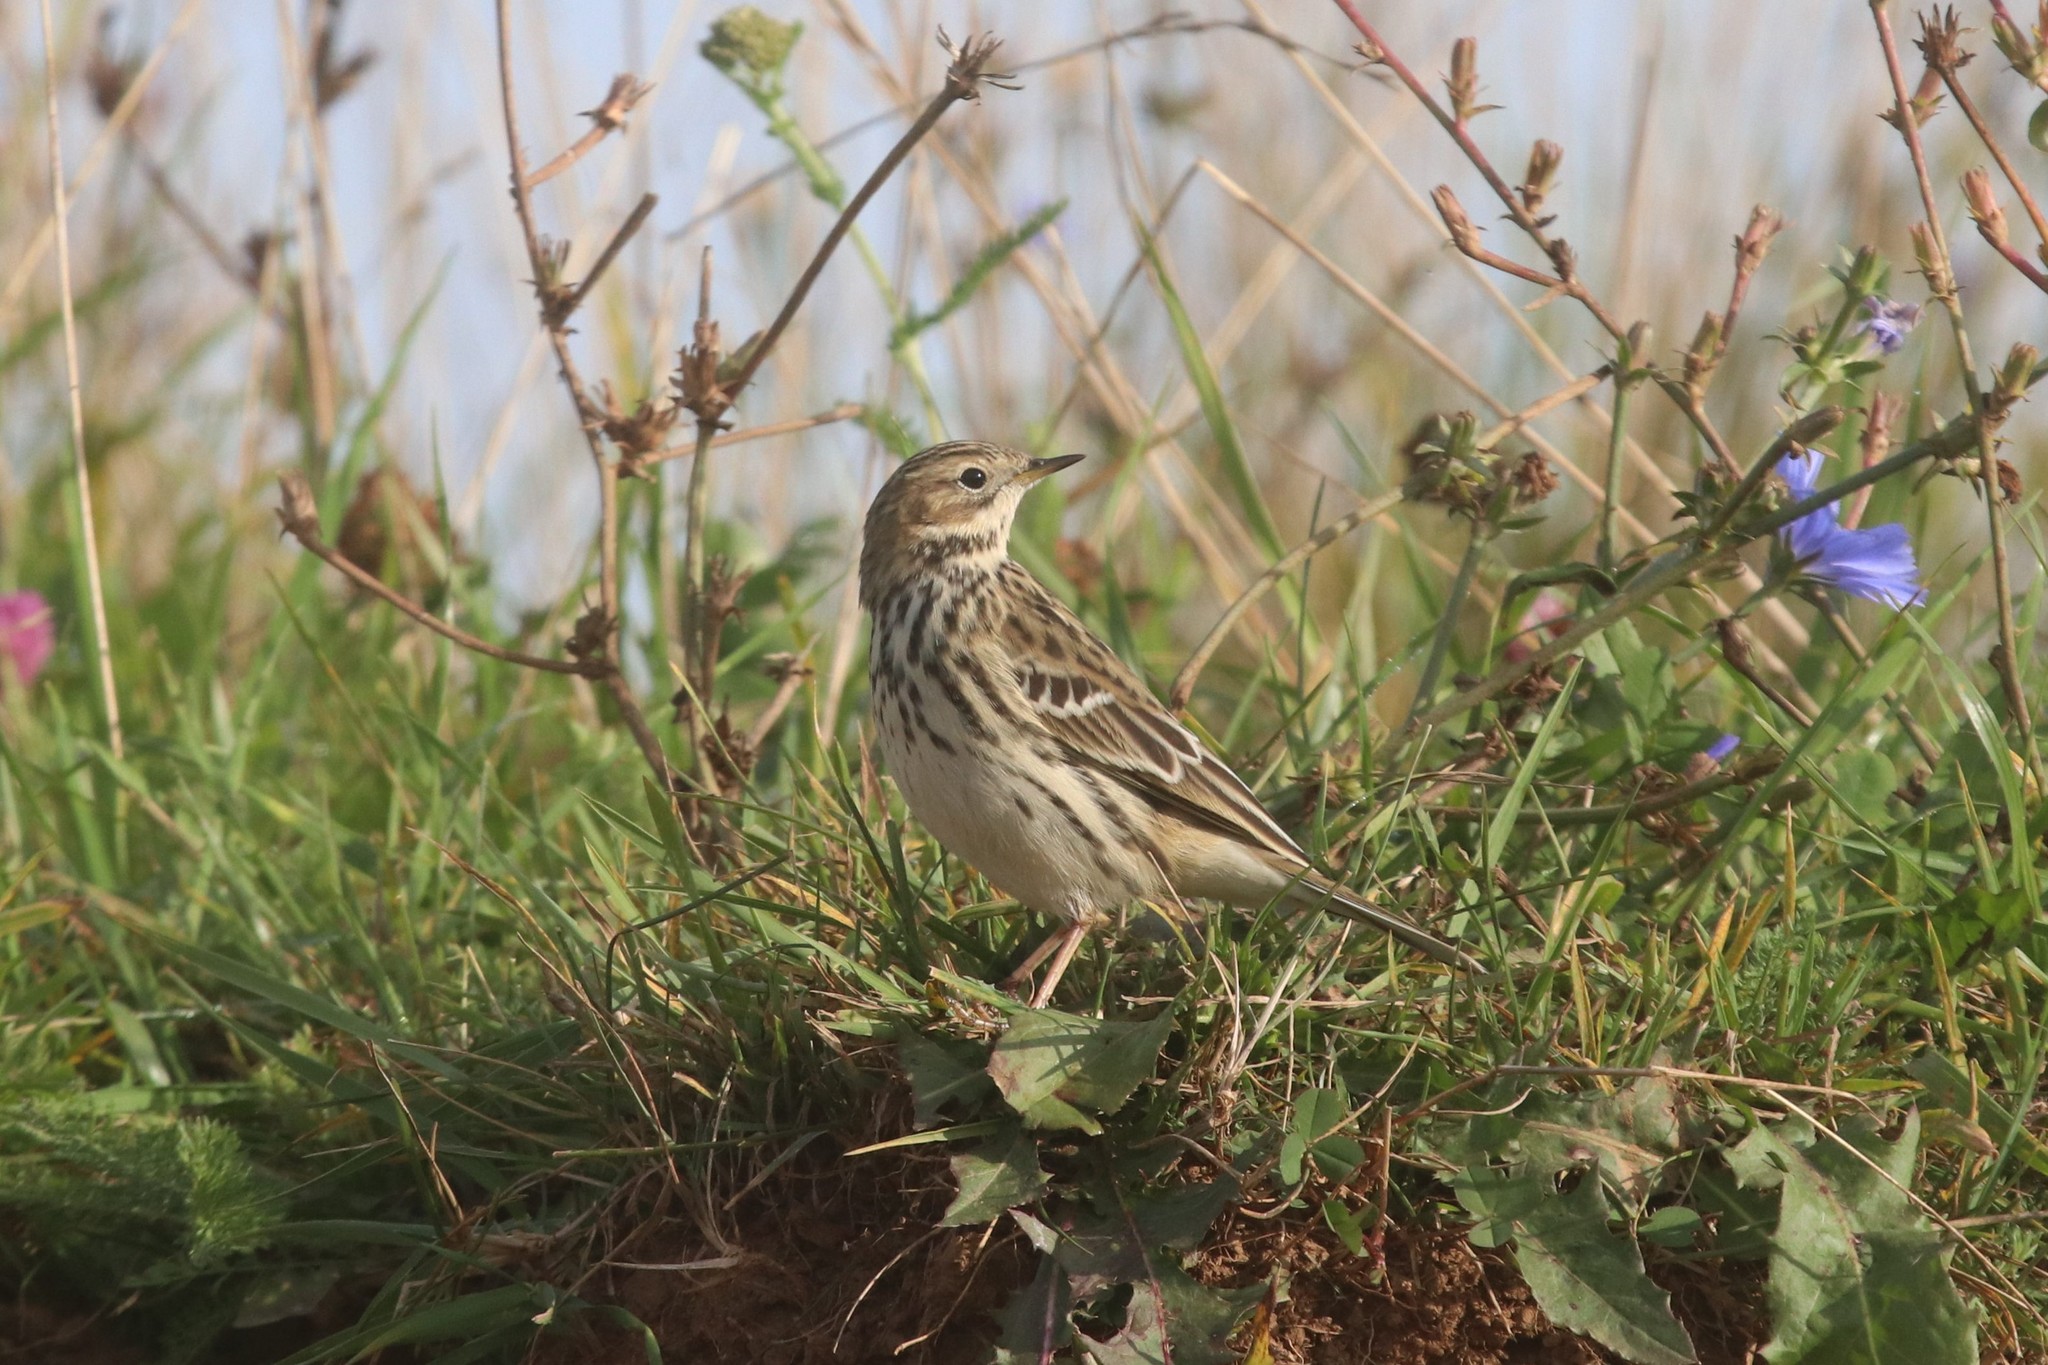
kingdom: Animalia
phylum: Chordata
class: Aves
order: Passeriformes
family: Motacillidae
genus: Anthus
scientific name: Anthus cervinus
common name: Red-throated pipit
